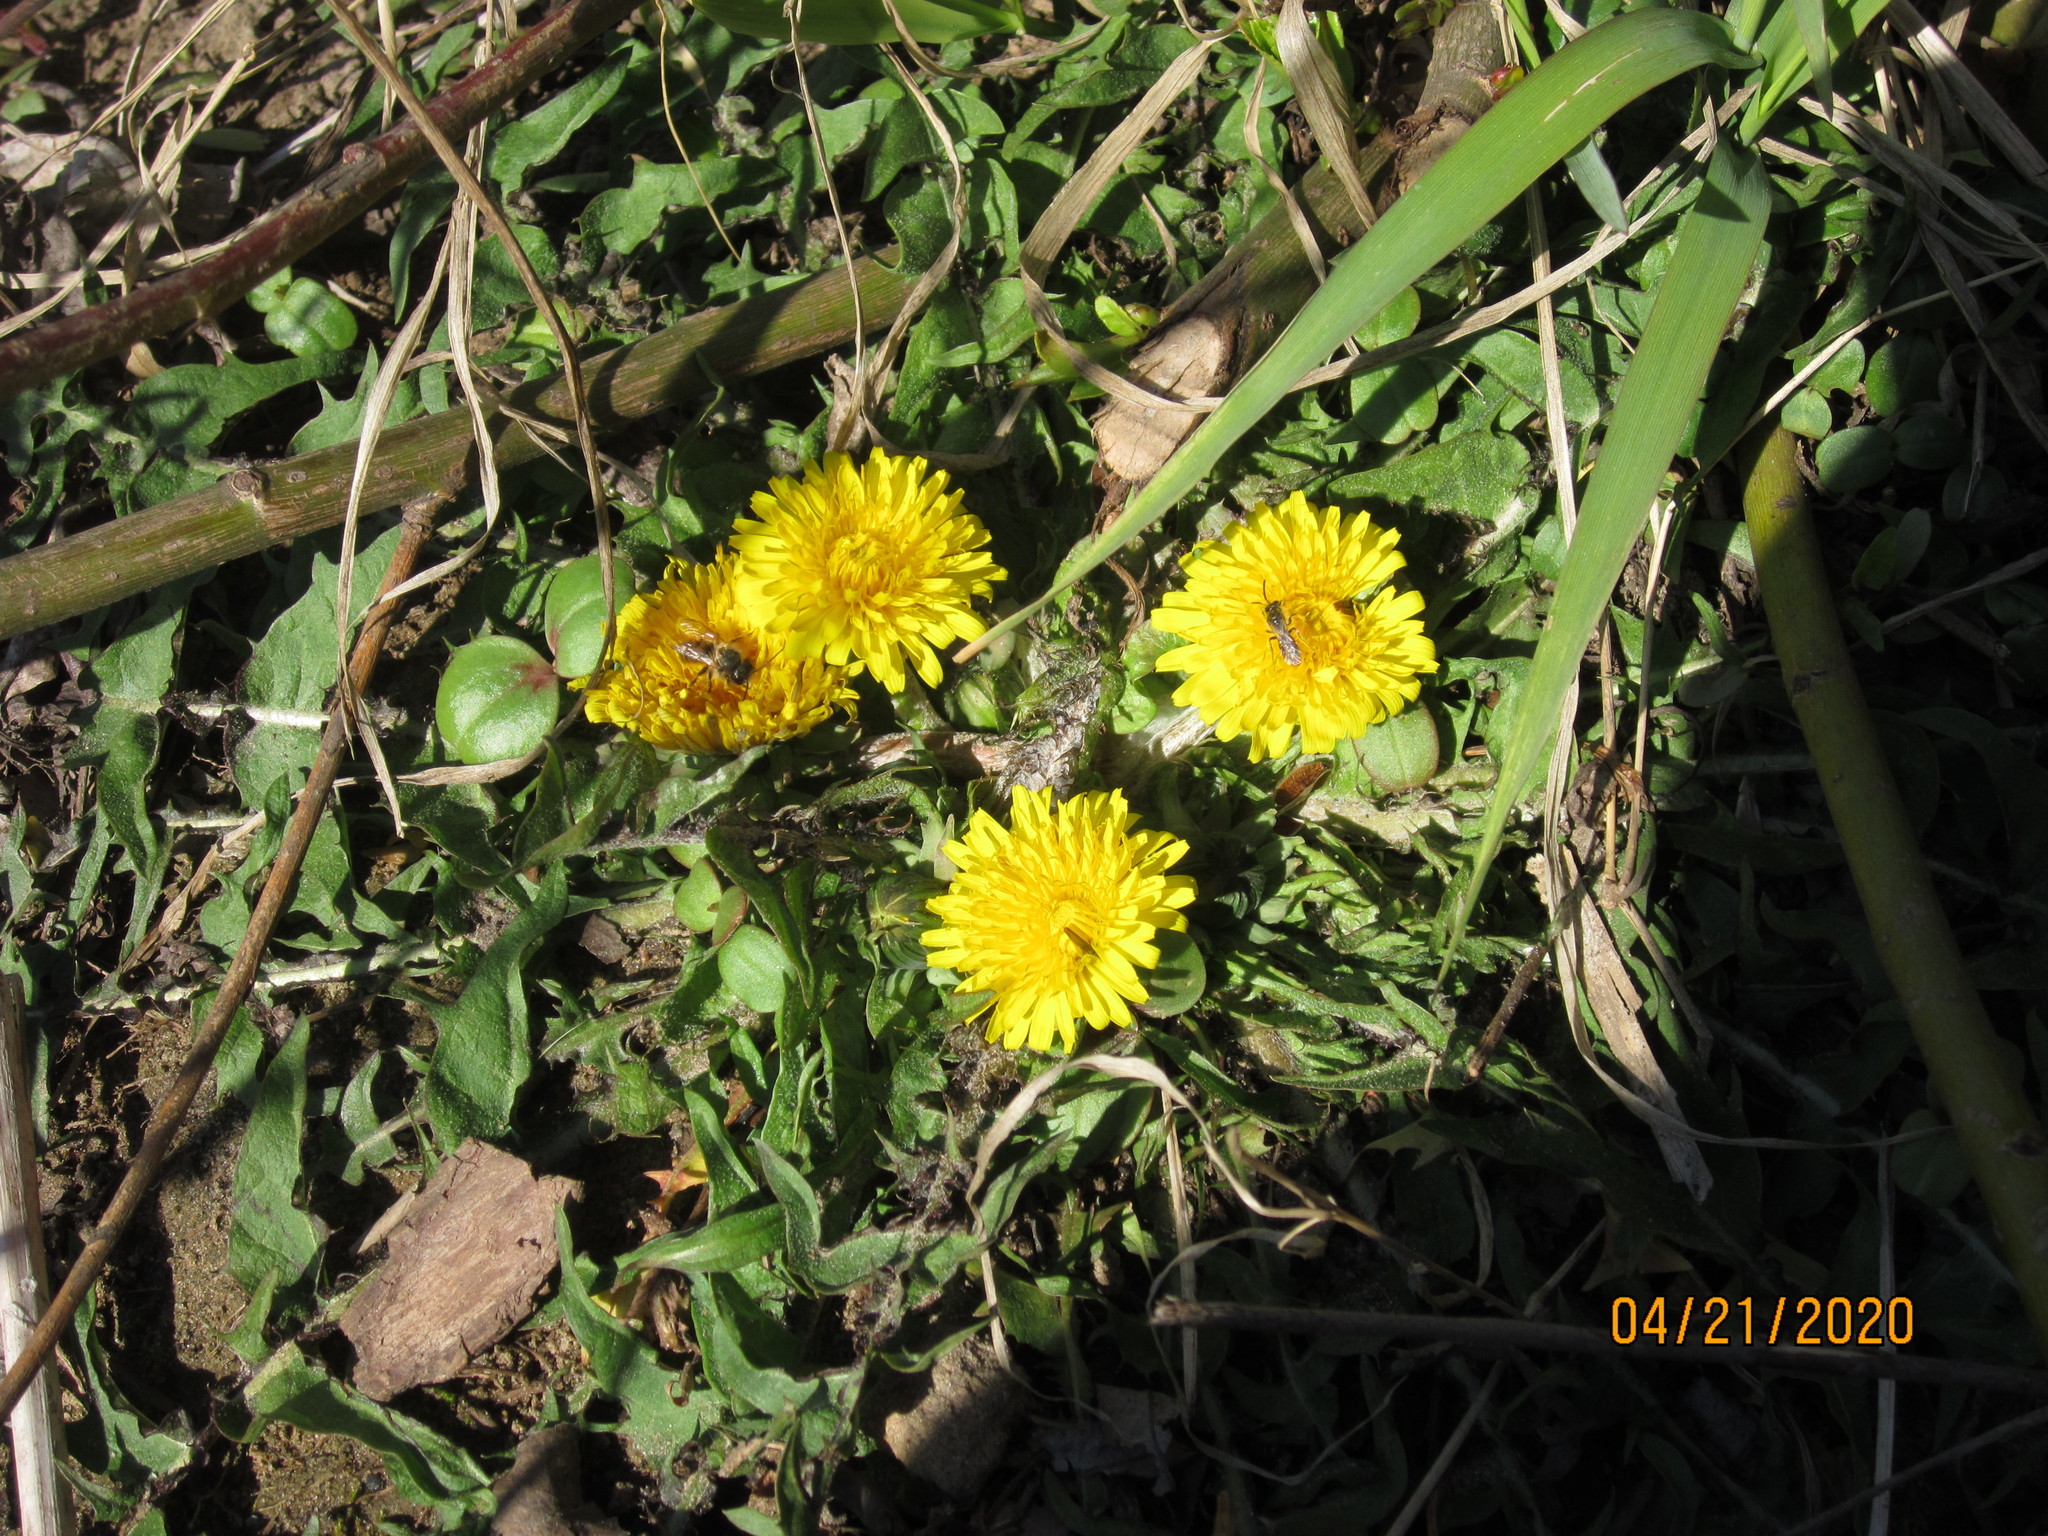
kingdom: Plantae
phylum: Tracheophyta
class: Magnoliopsida
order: Asterales
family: Asteraceae
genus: Taraxacum
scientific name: Taraxacum officinale
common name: Common dandelion
